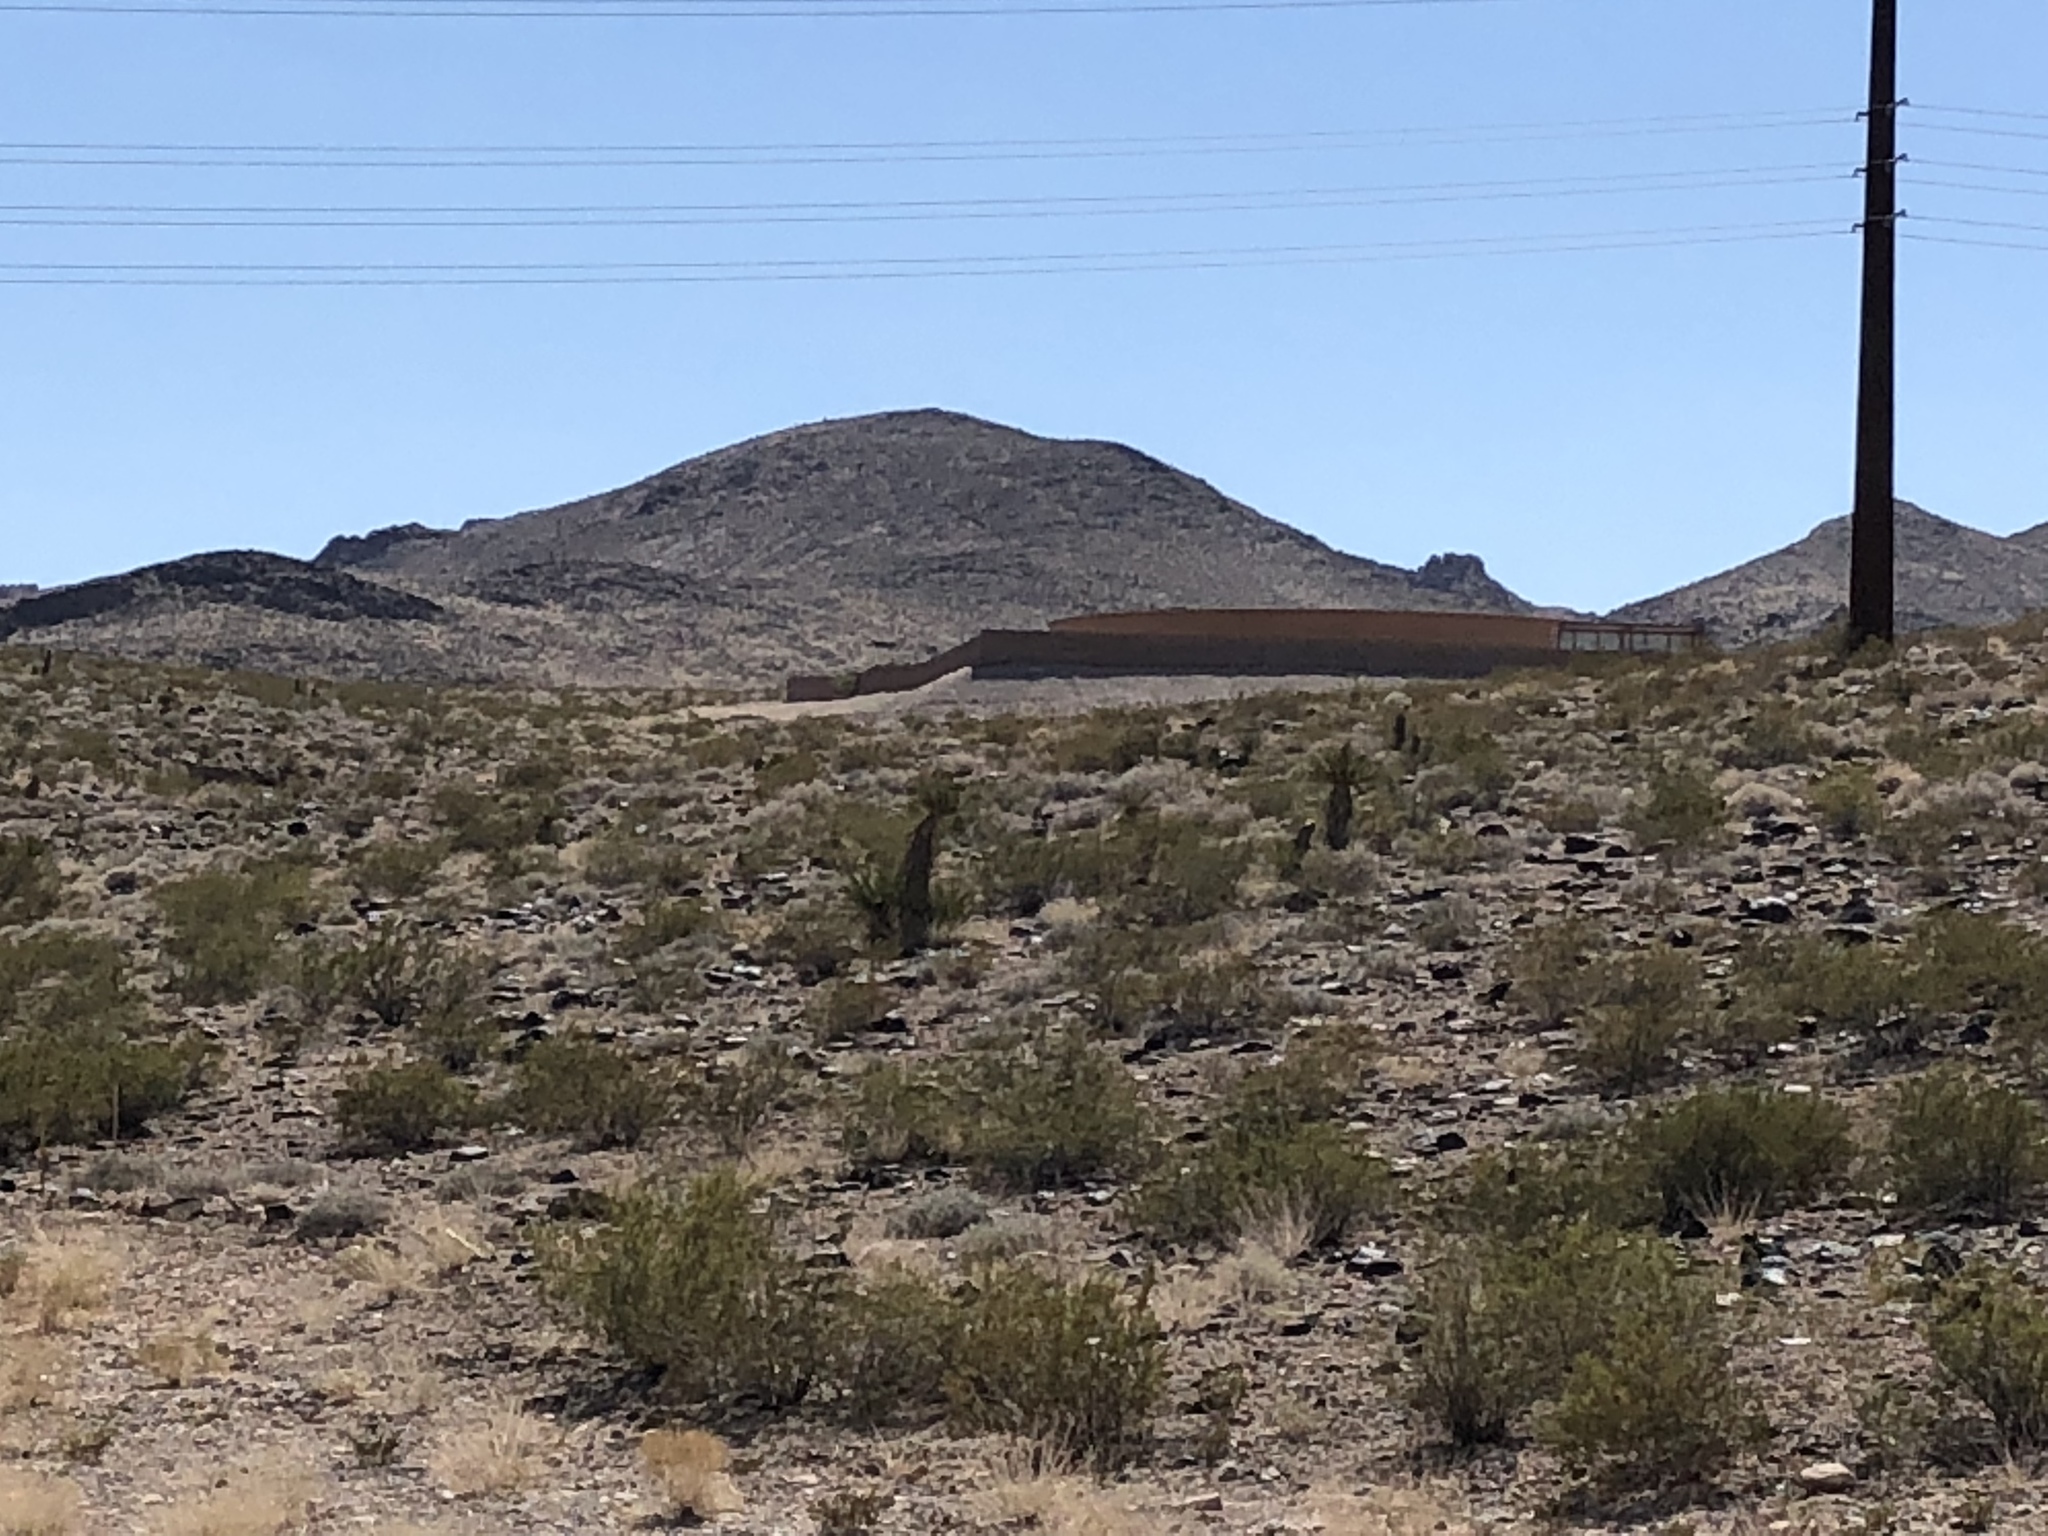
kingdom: Plantae
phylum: Tracheophyta
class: Magnoliopsida
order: Zygophyllales
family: Zygophyllaceae
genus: Larrea
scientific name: Larrea tridentata
